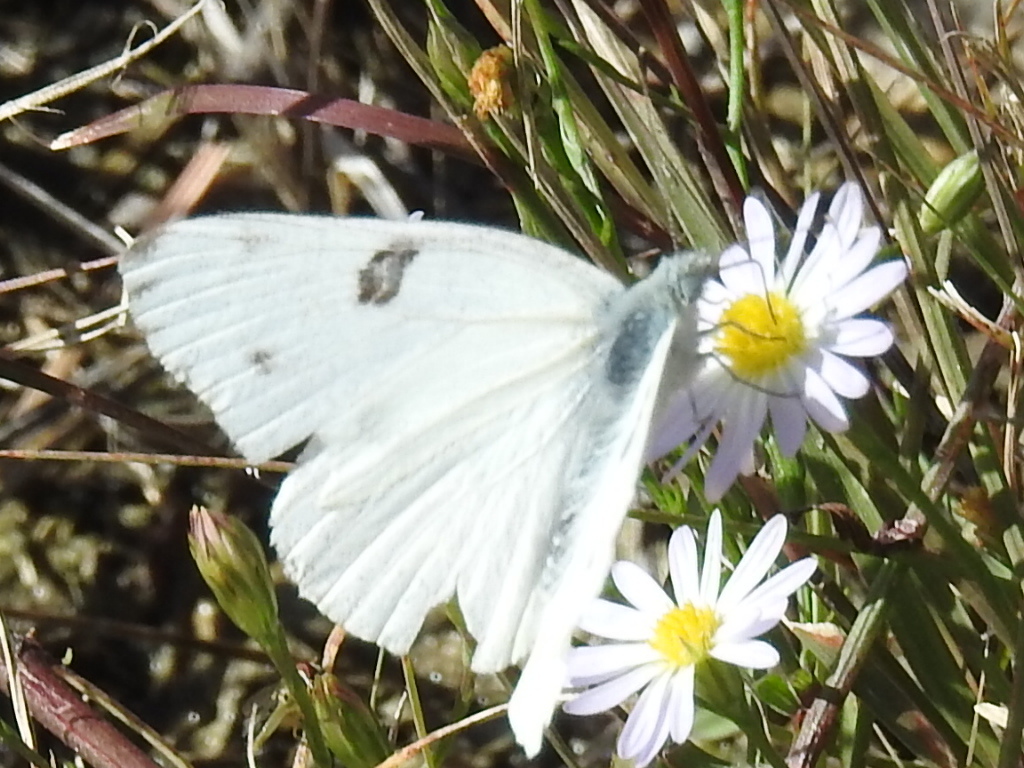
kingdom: Animalia
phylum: Arthropoda
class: Insecta
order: Lepidoptera
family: Pieridae
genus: Pontia
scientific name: Pontia protodice
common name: Checkered white
